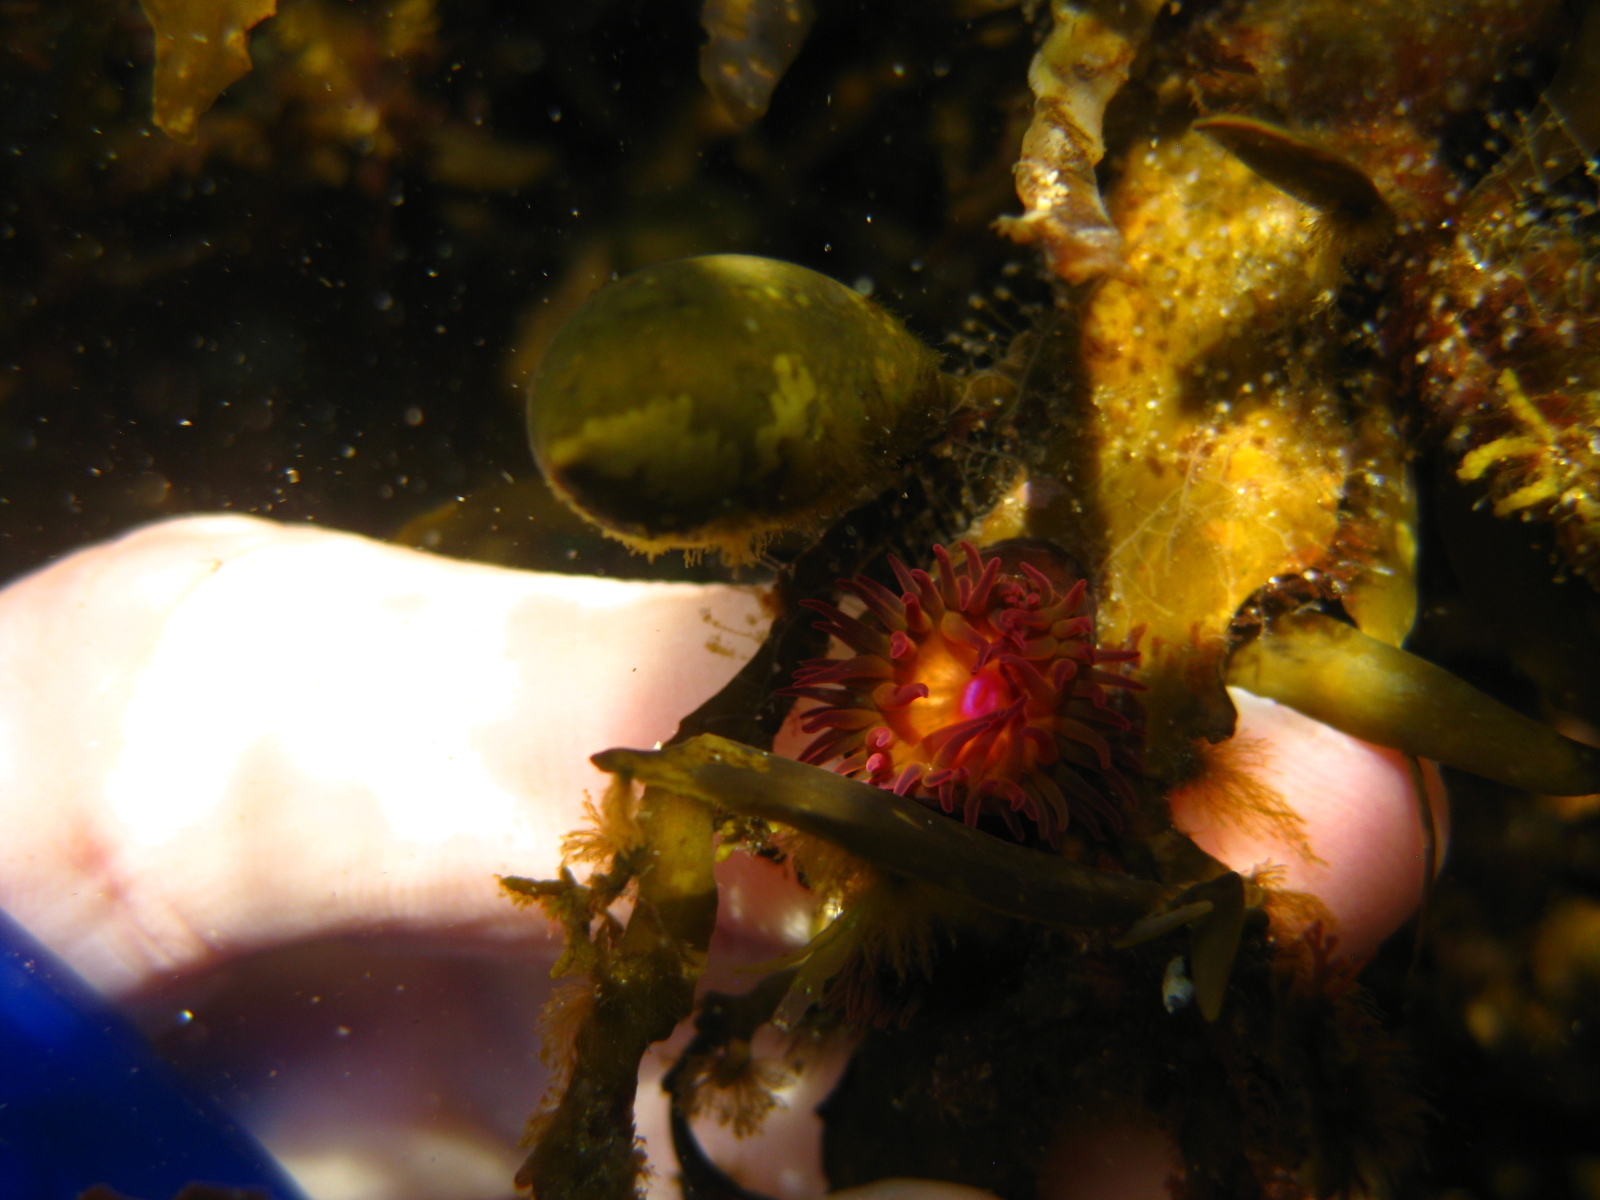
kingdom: Animalia
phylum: Cnidaria
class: Anthozoa
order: Actiniaria
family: Hormathiidae
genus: Handactis
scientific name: Handactis nutrix
